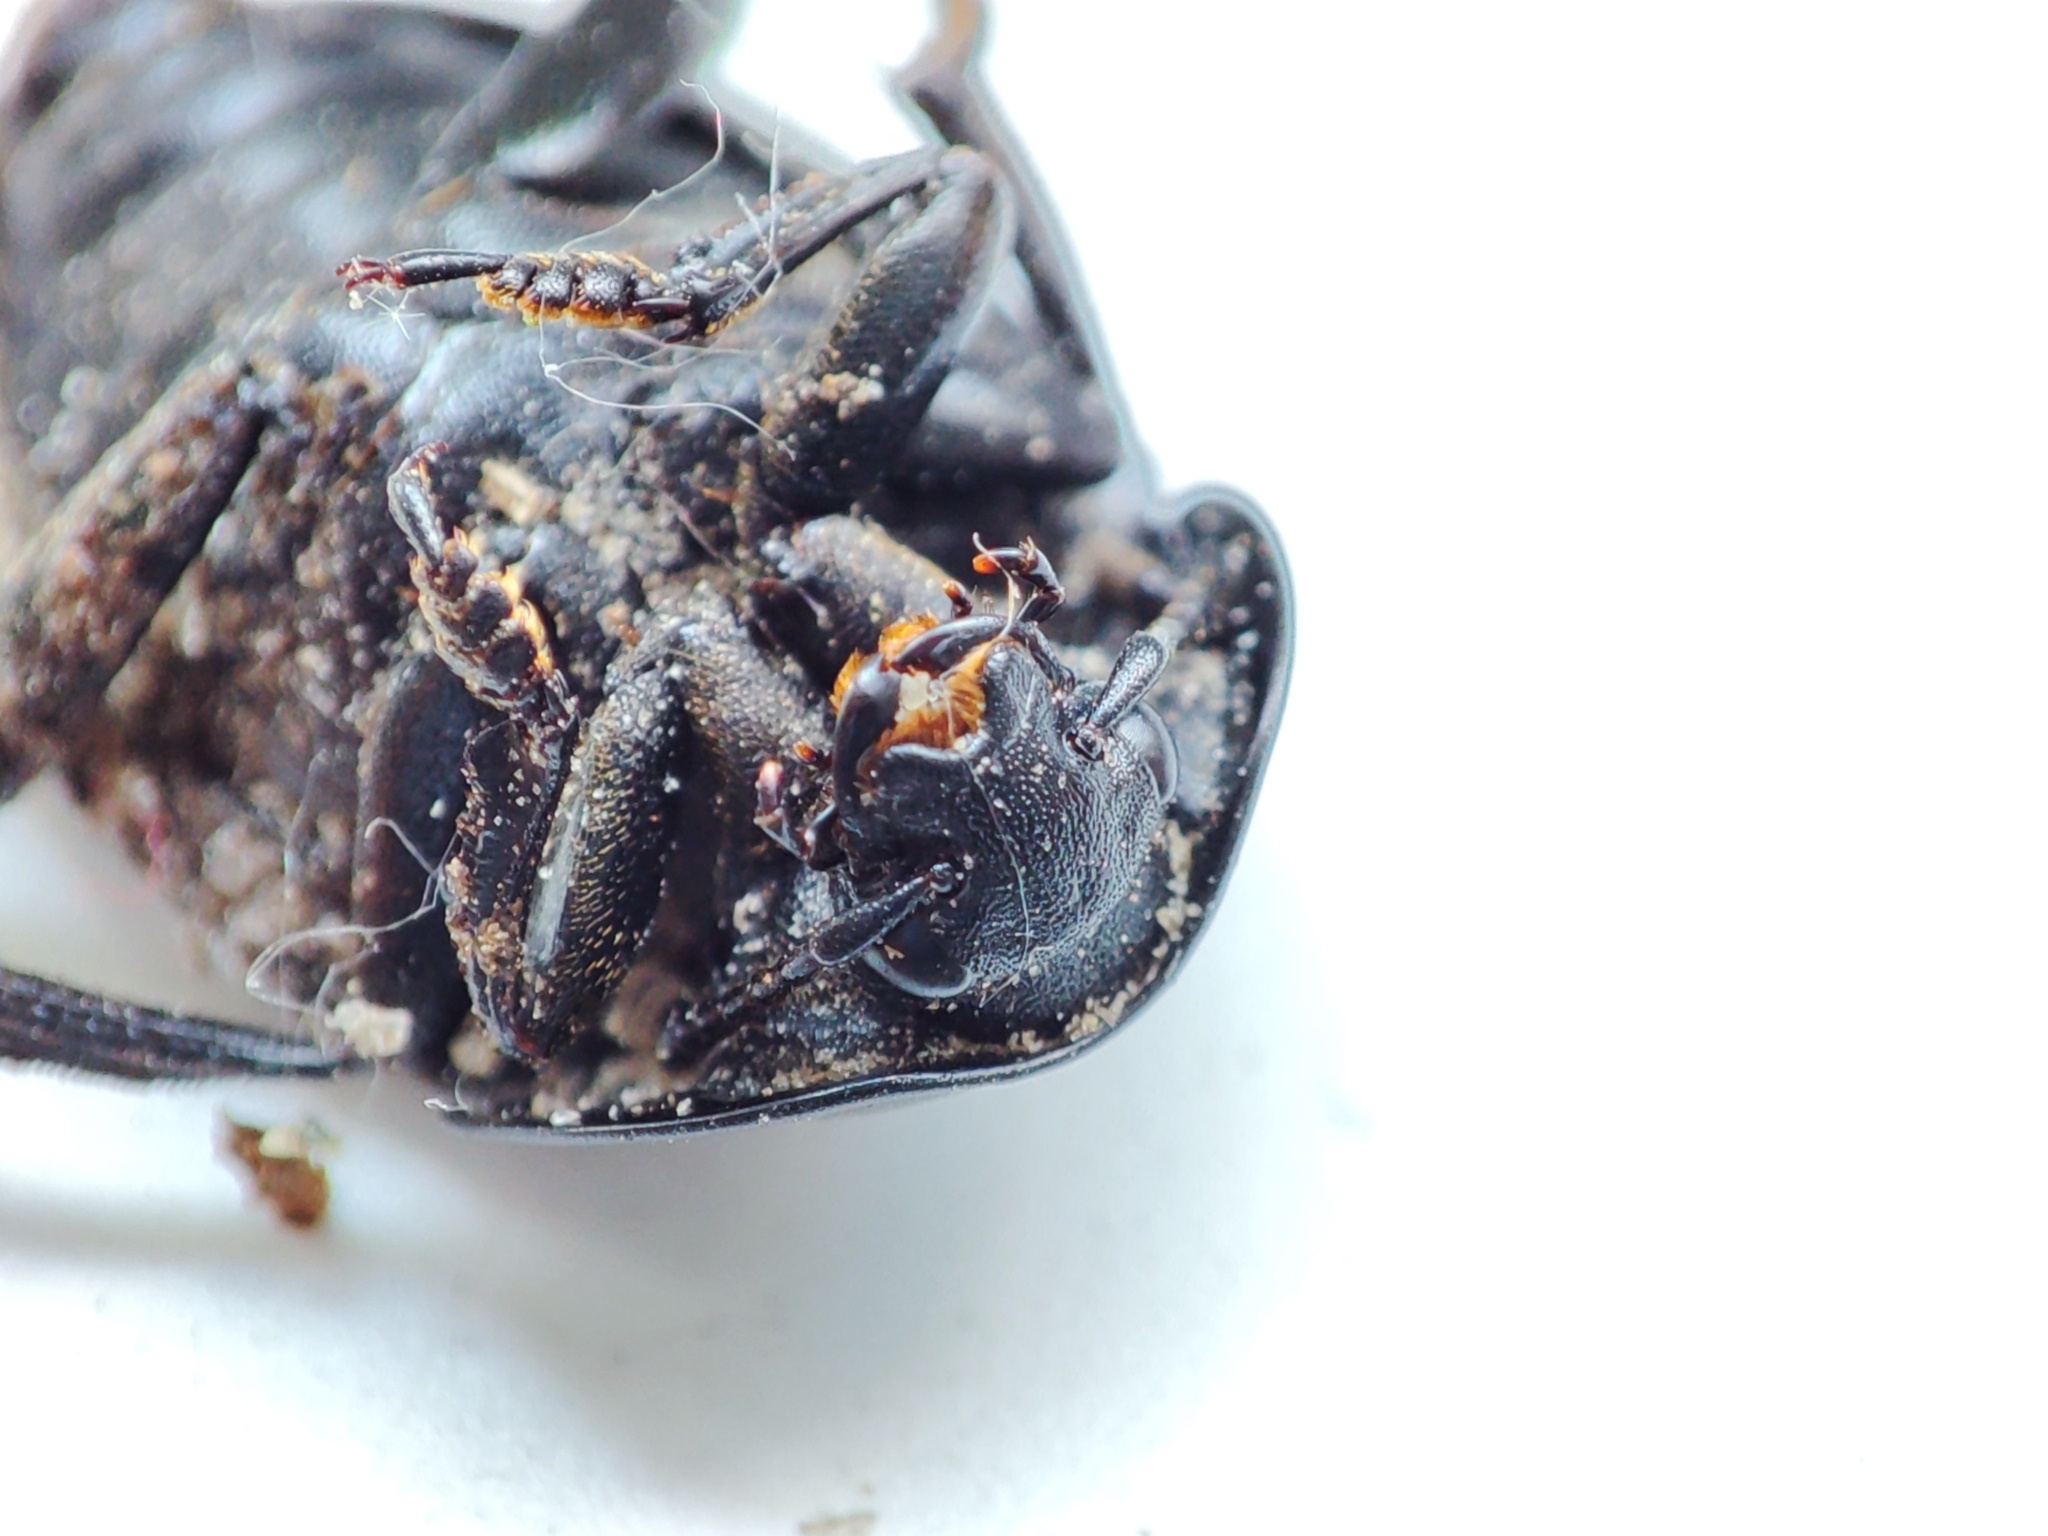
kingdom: Animalia
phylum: Arthropoda
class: Insecta
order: Coleoptera
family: Staphylinidae
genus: Silpha
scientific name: Silpha obscura
